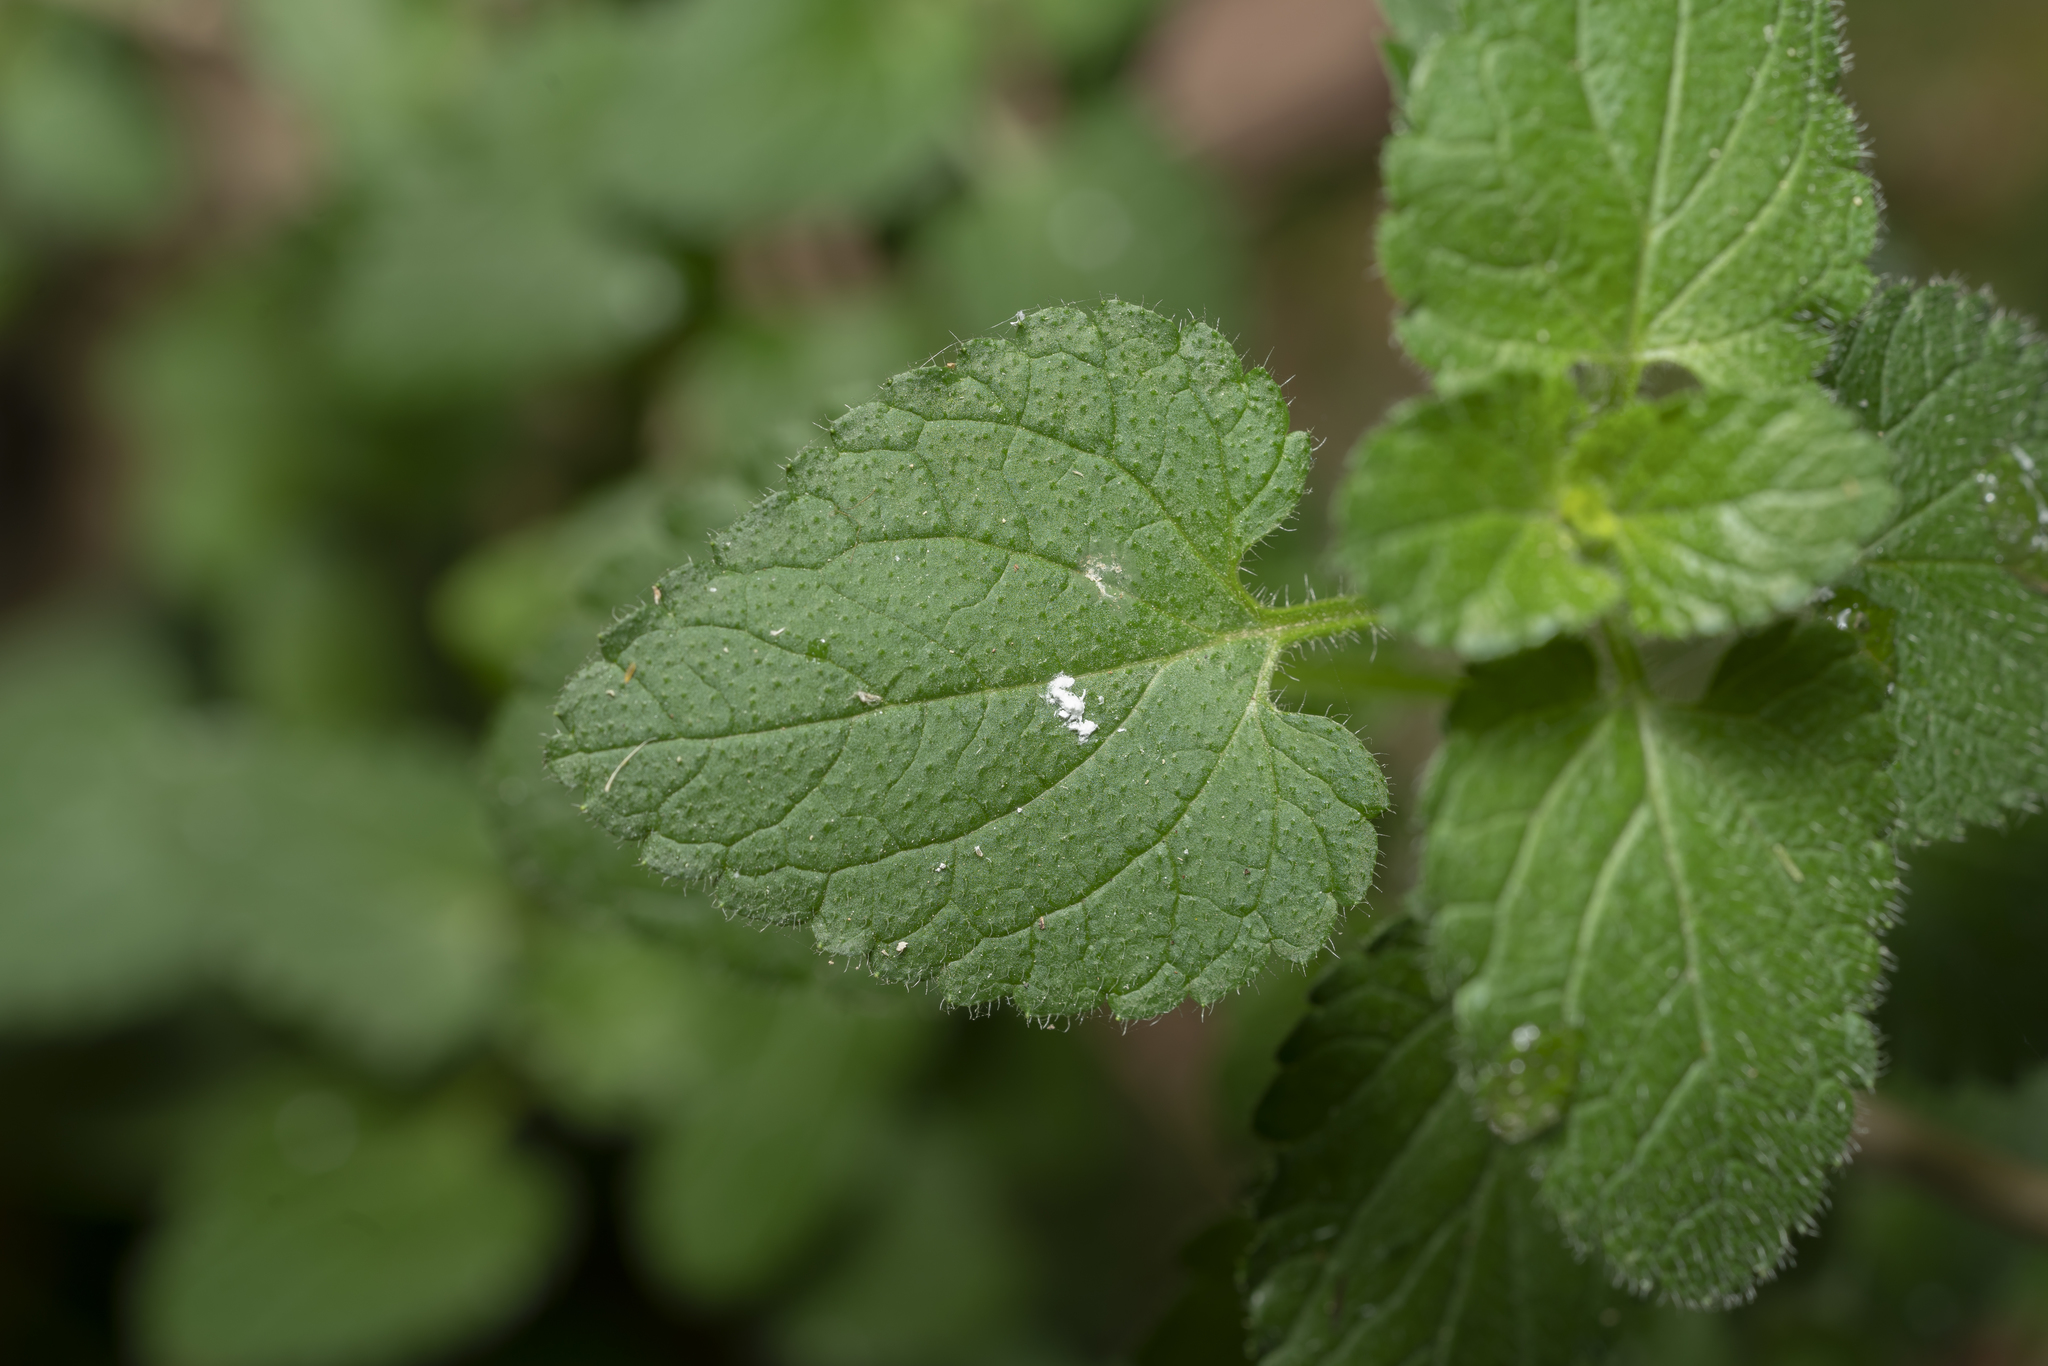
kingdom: Plantae
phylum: Tracheophyta
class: Magnoliopsida
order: Lamiales
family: Lamiaceae
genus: Prasium
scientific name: Prasium majus
